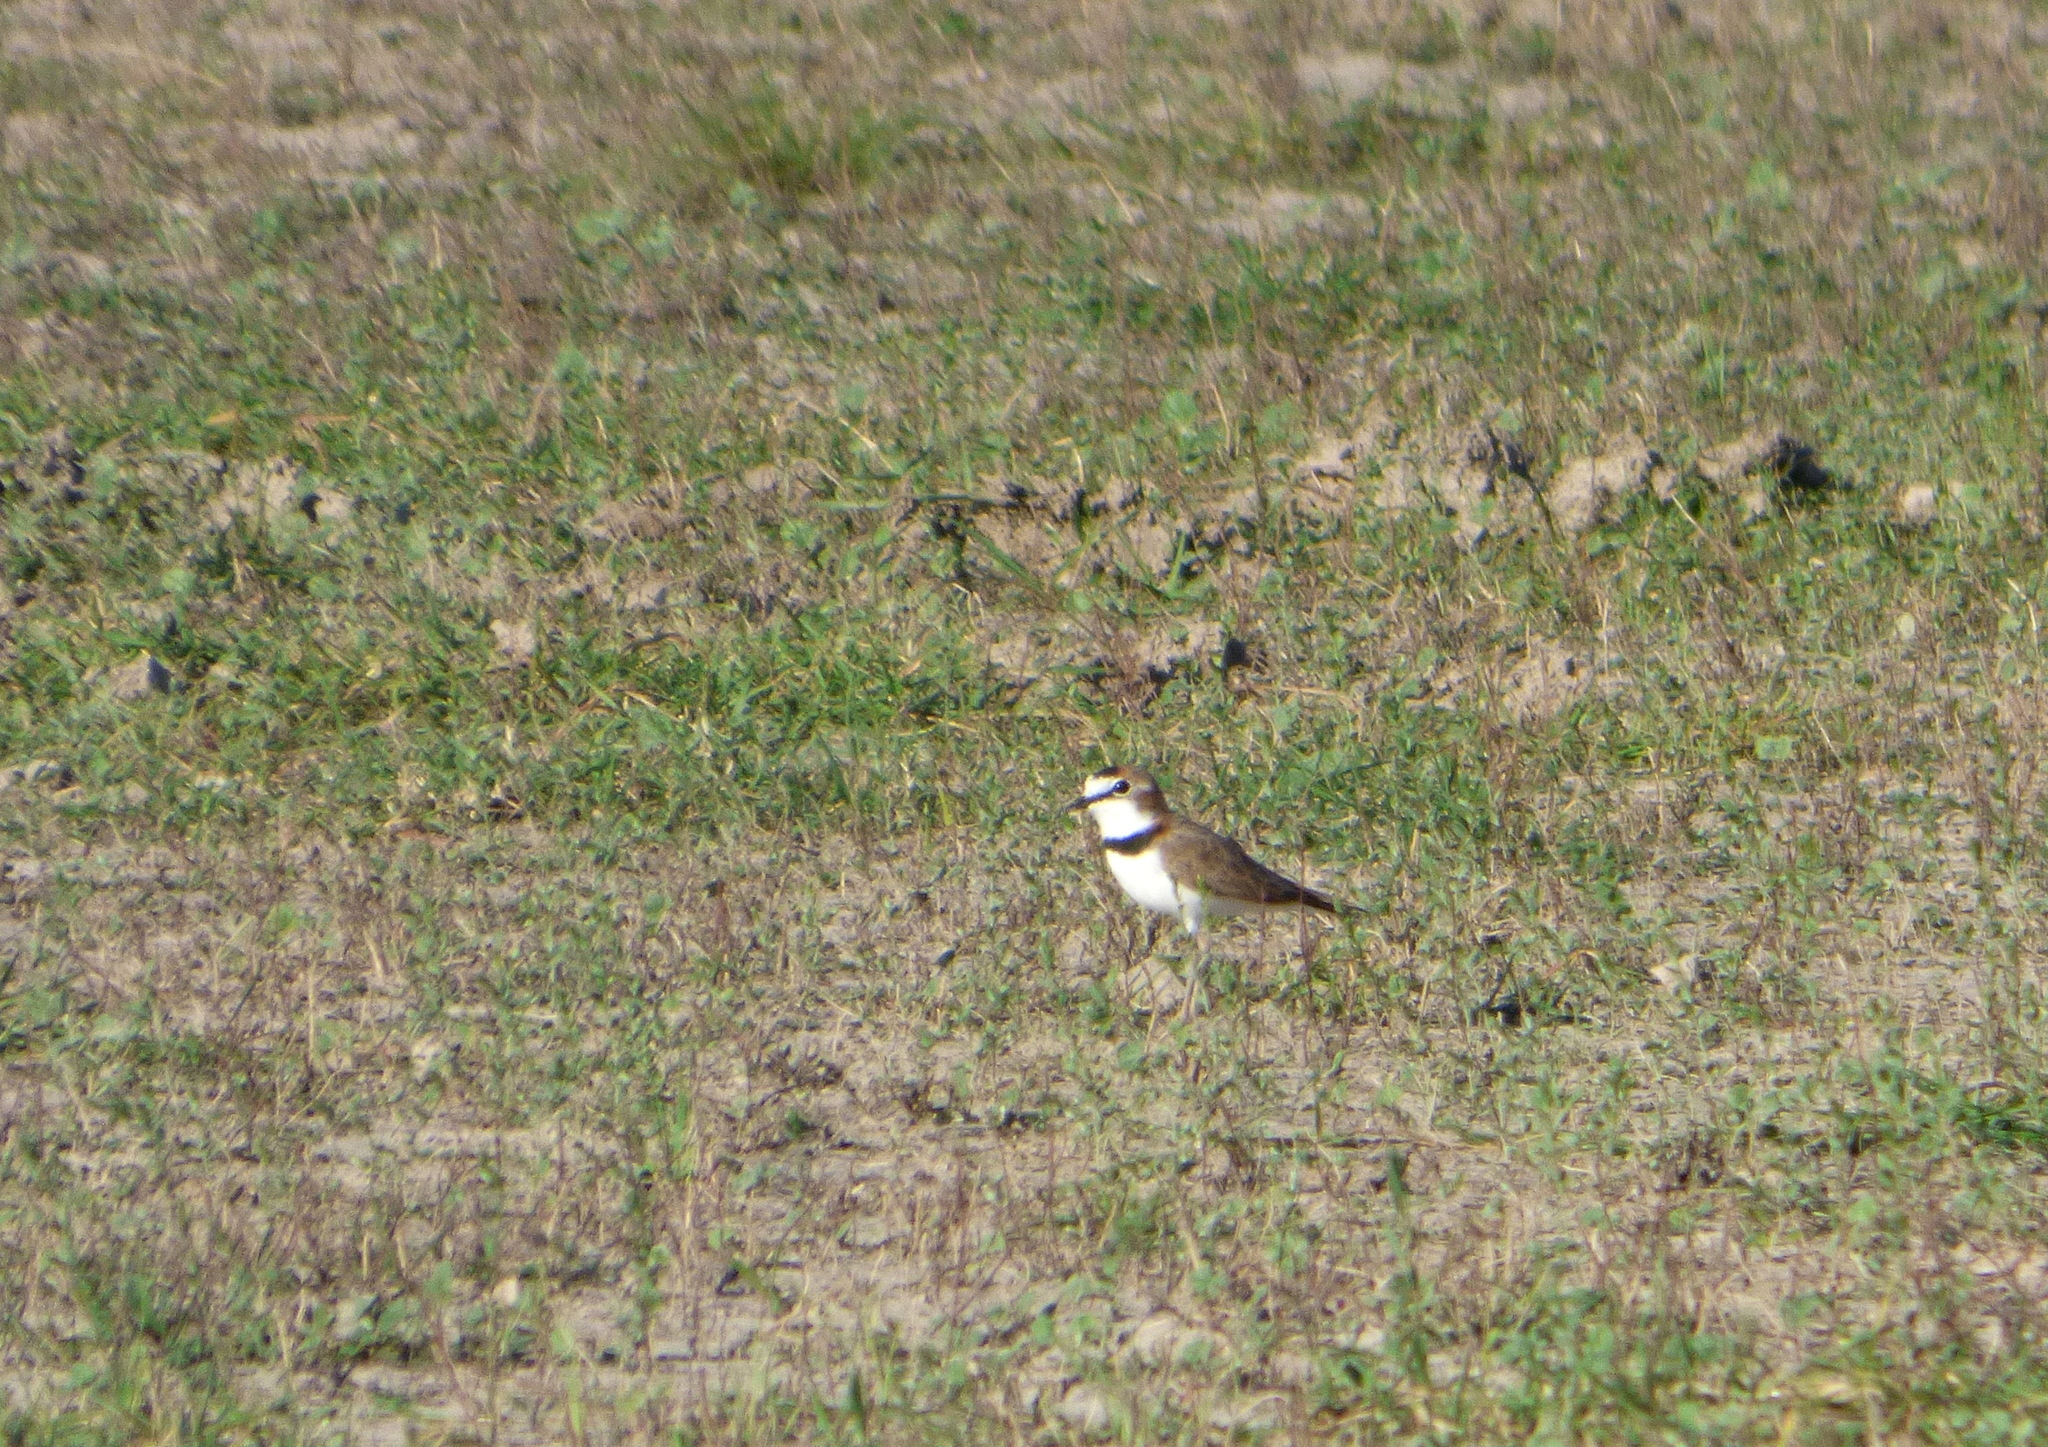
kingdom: Animalia
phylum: Chordata
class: Aves
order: Charadriiformes
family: Charadriidae
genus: Anarhynchus
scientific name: Anarhynchus
